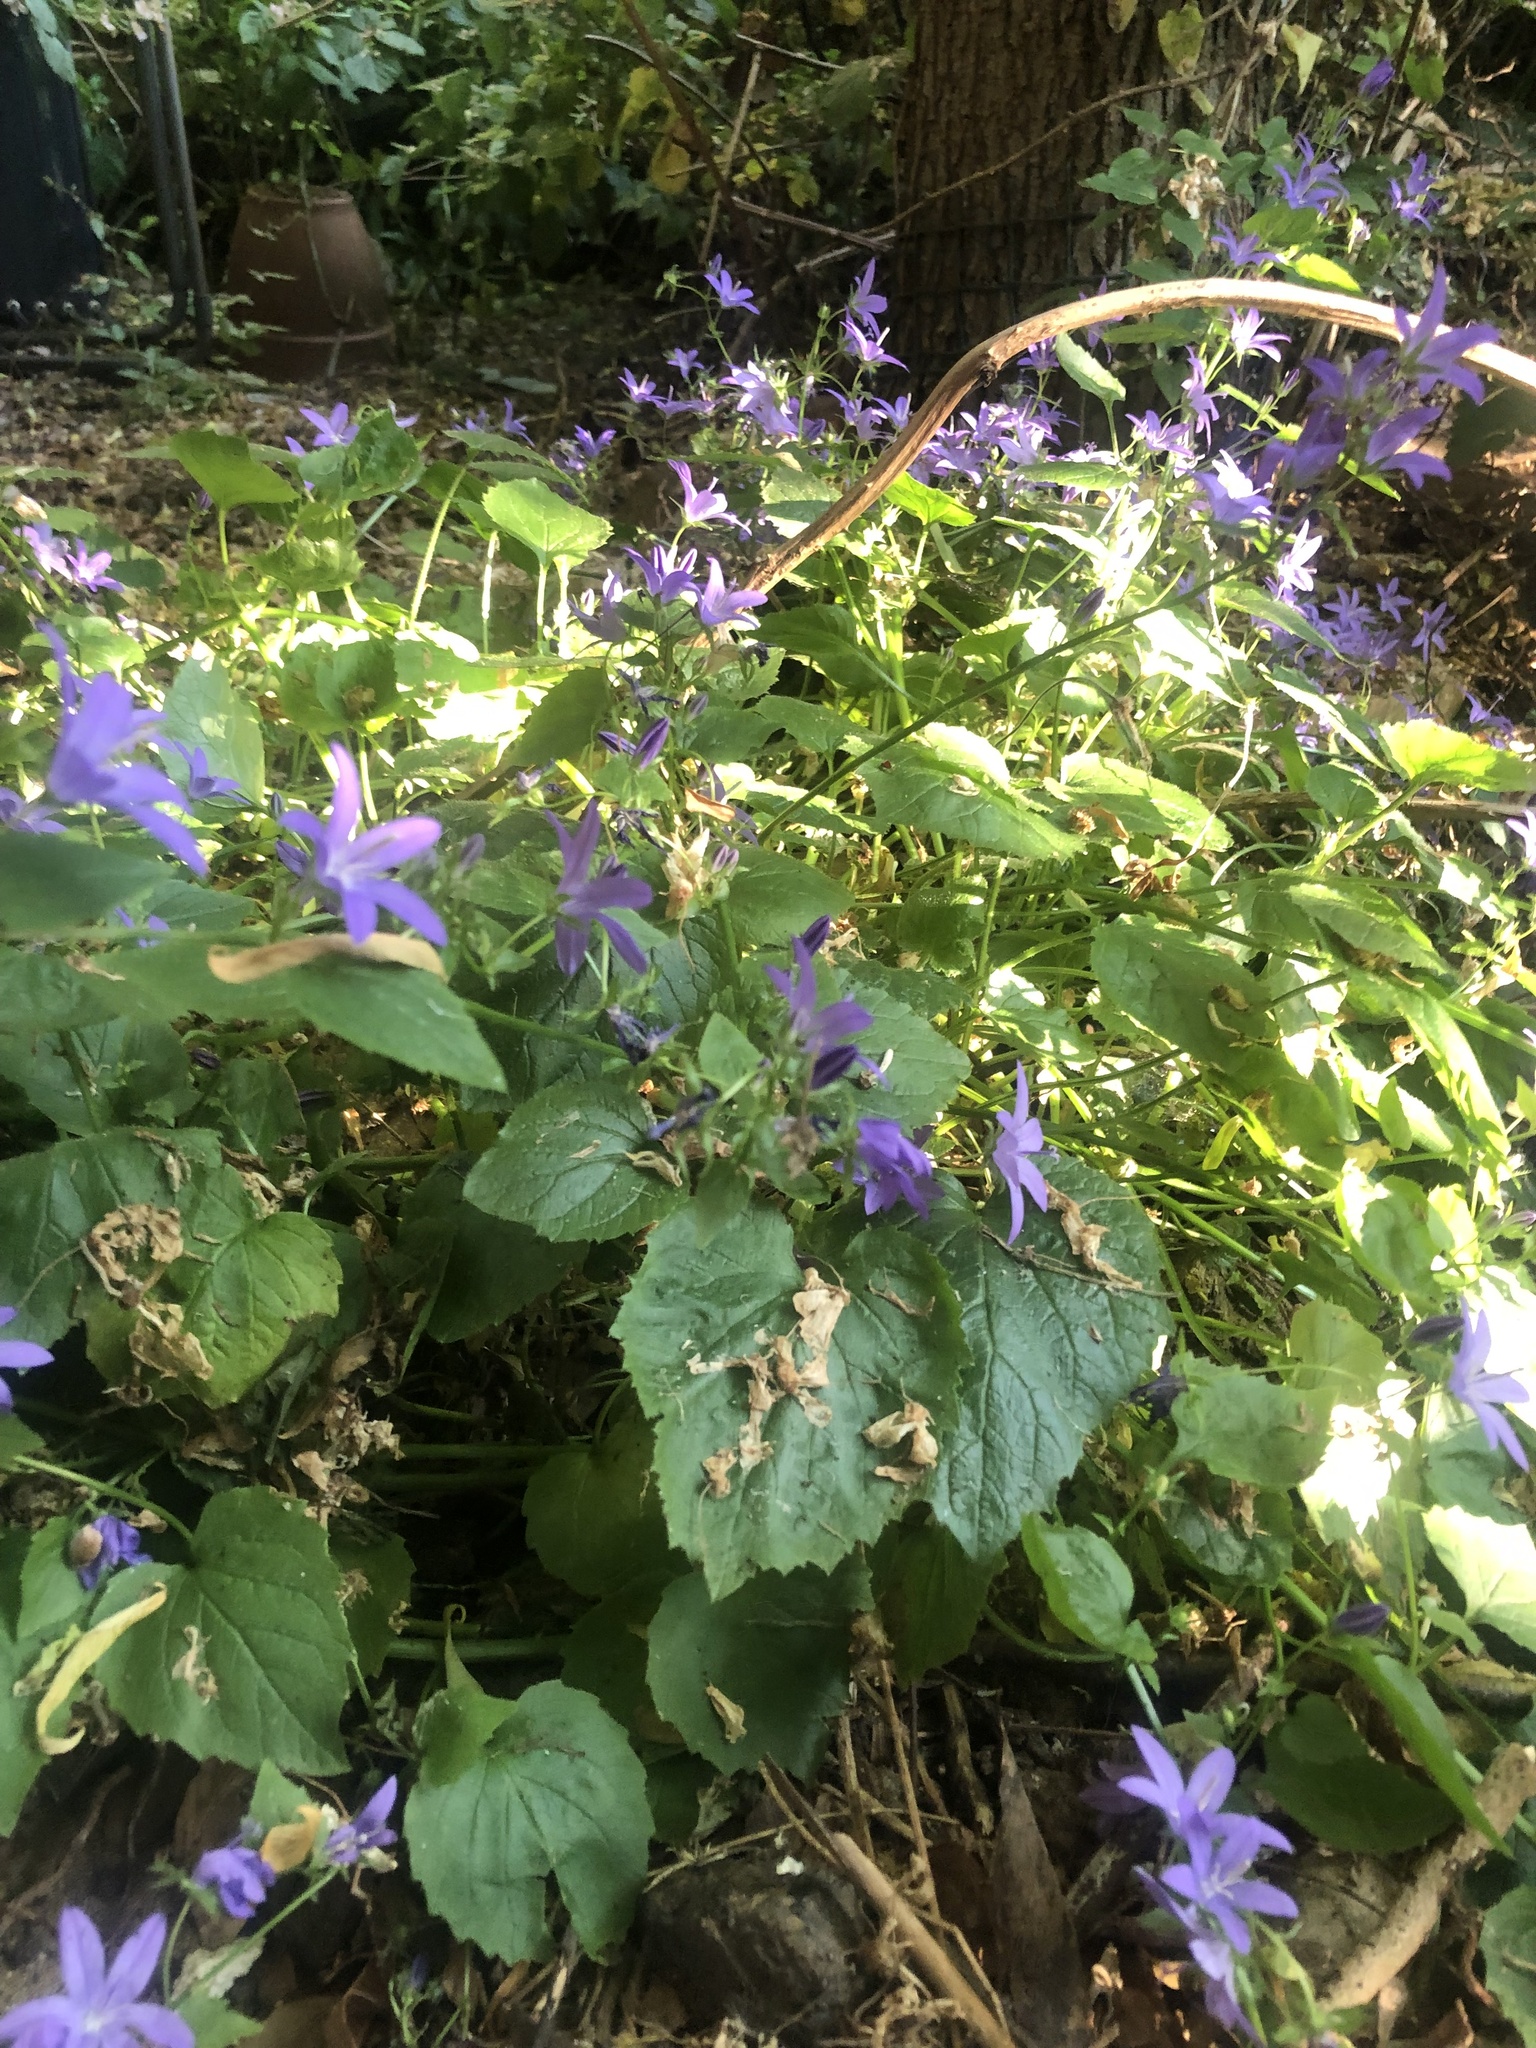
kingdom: Plantae
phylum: Tracheophyta
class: Magnoliopsida
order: Asterales
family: Campanulaceae
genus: Campanula
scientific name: Campanula poscharskyana
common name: Trailing bellflower
